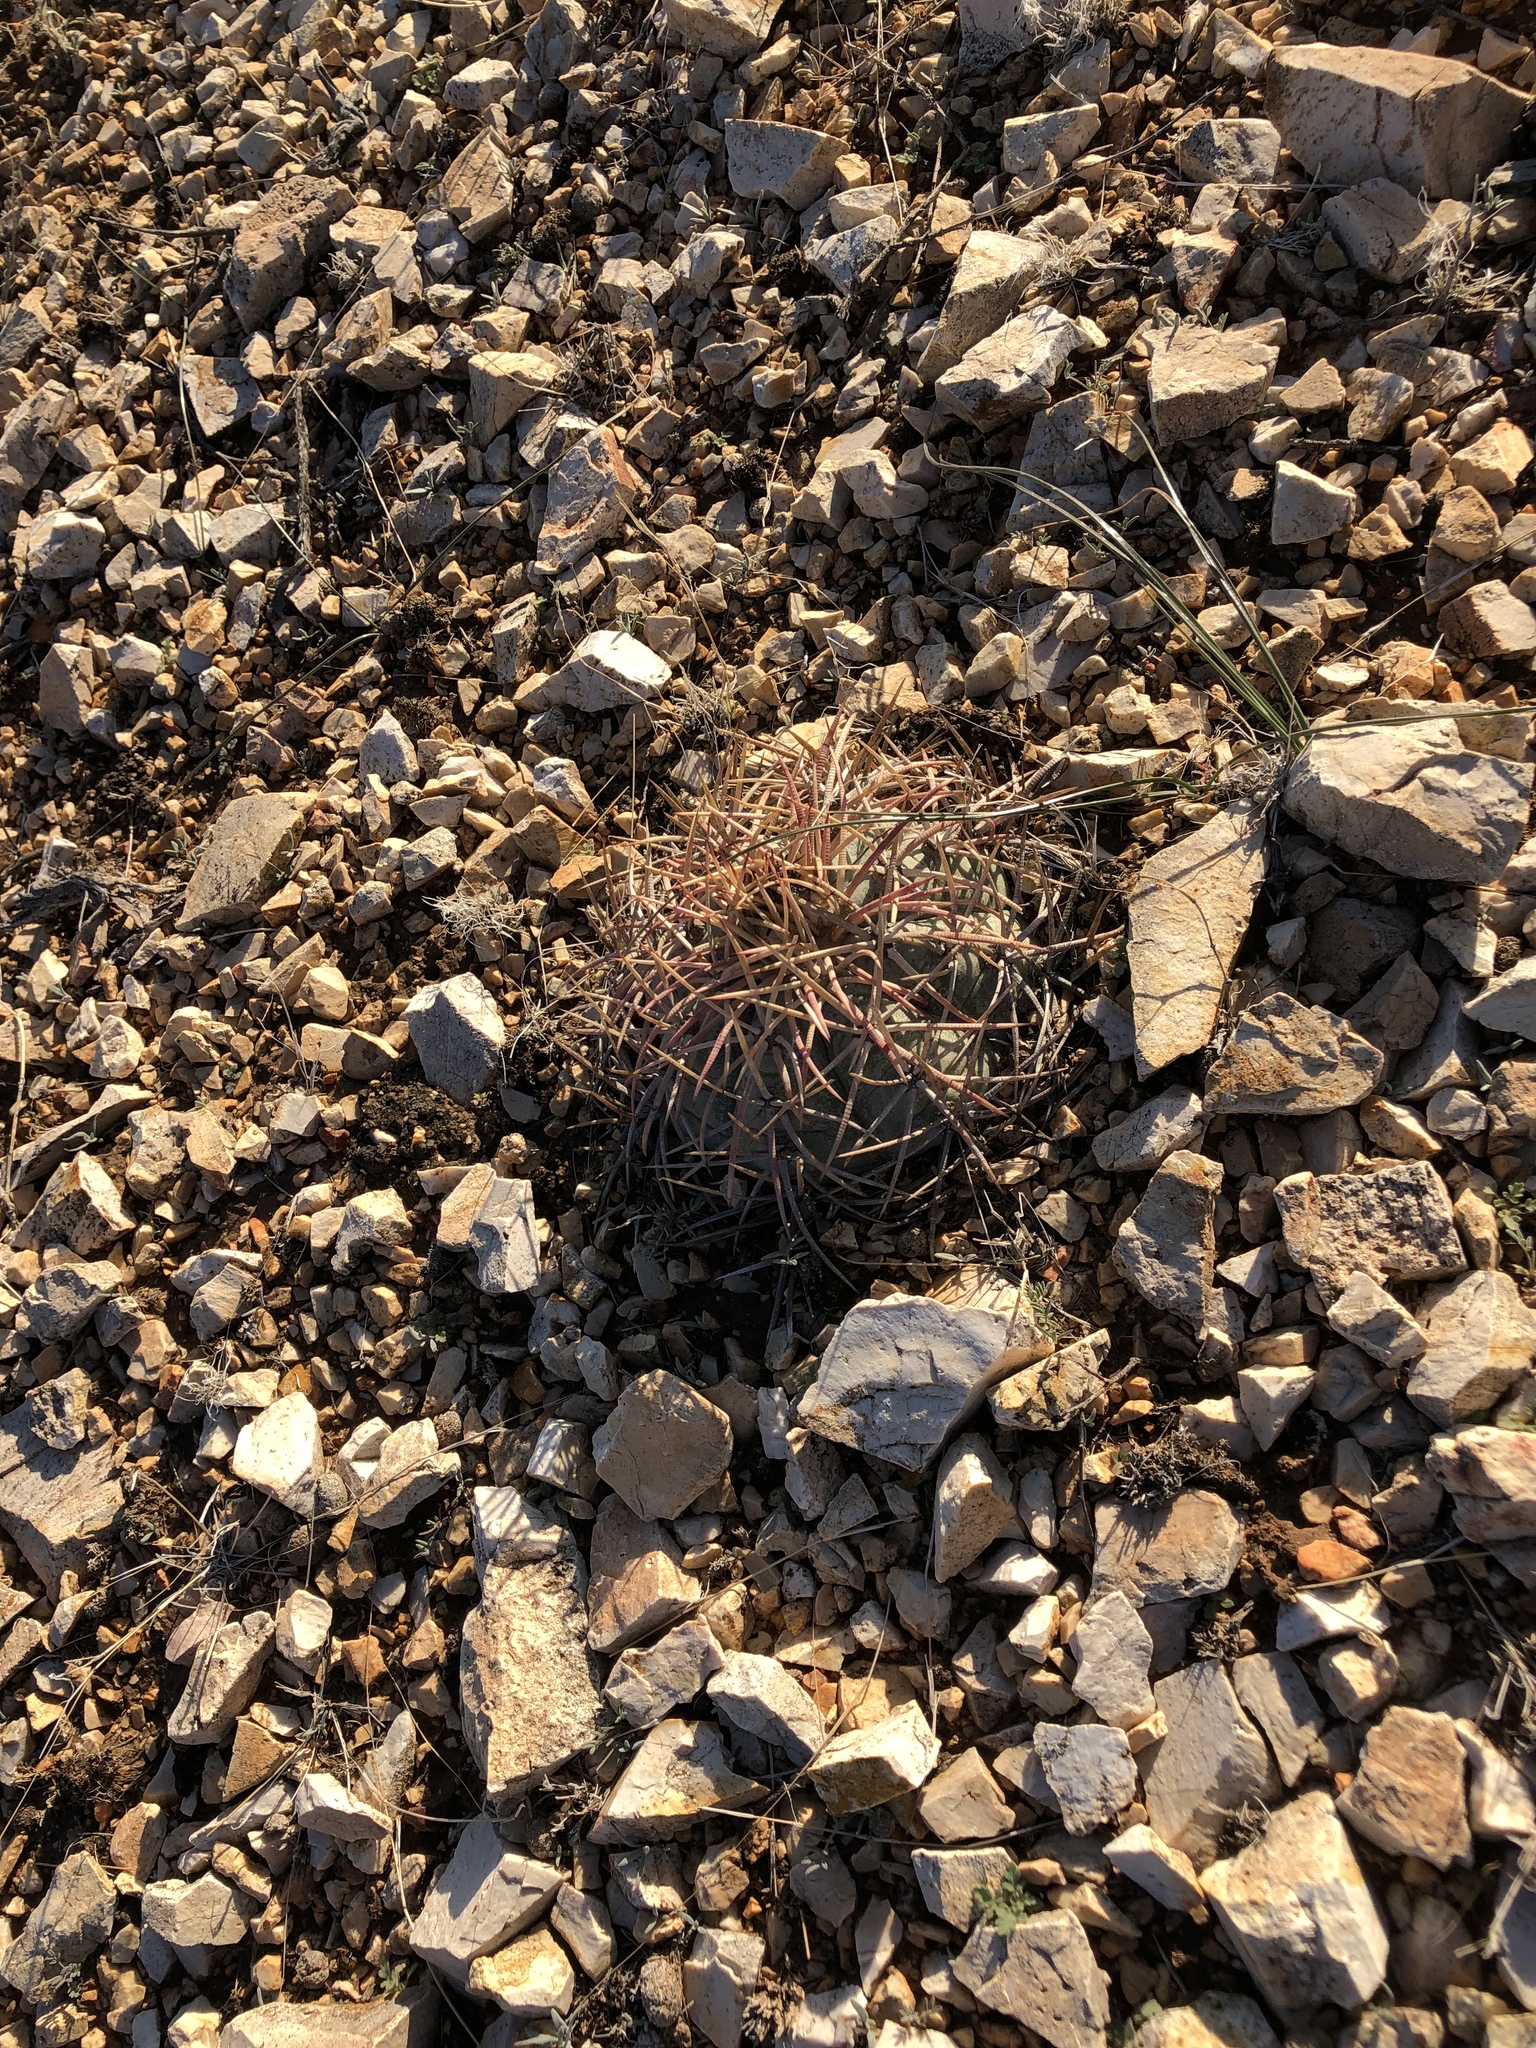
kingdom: Plantae
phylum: Tracheophyta
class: Magnoliopsida
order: Caryophyllales
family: Cactaceae
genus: Echinocactus
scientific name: Echinocactus horizonthalonius
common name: Devilshead
